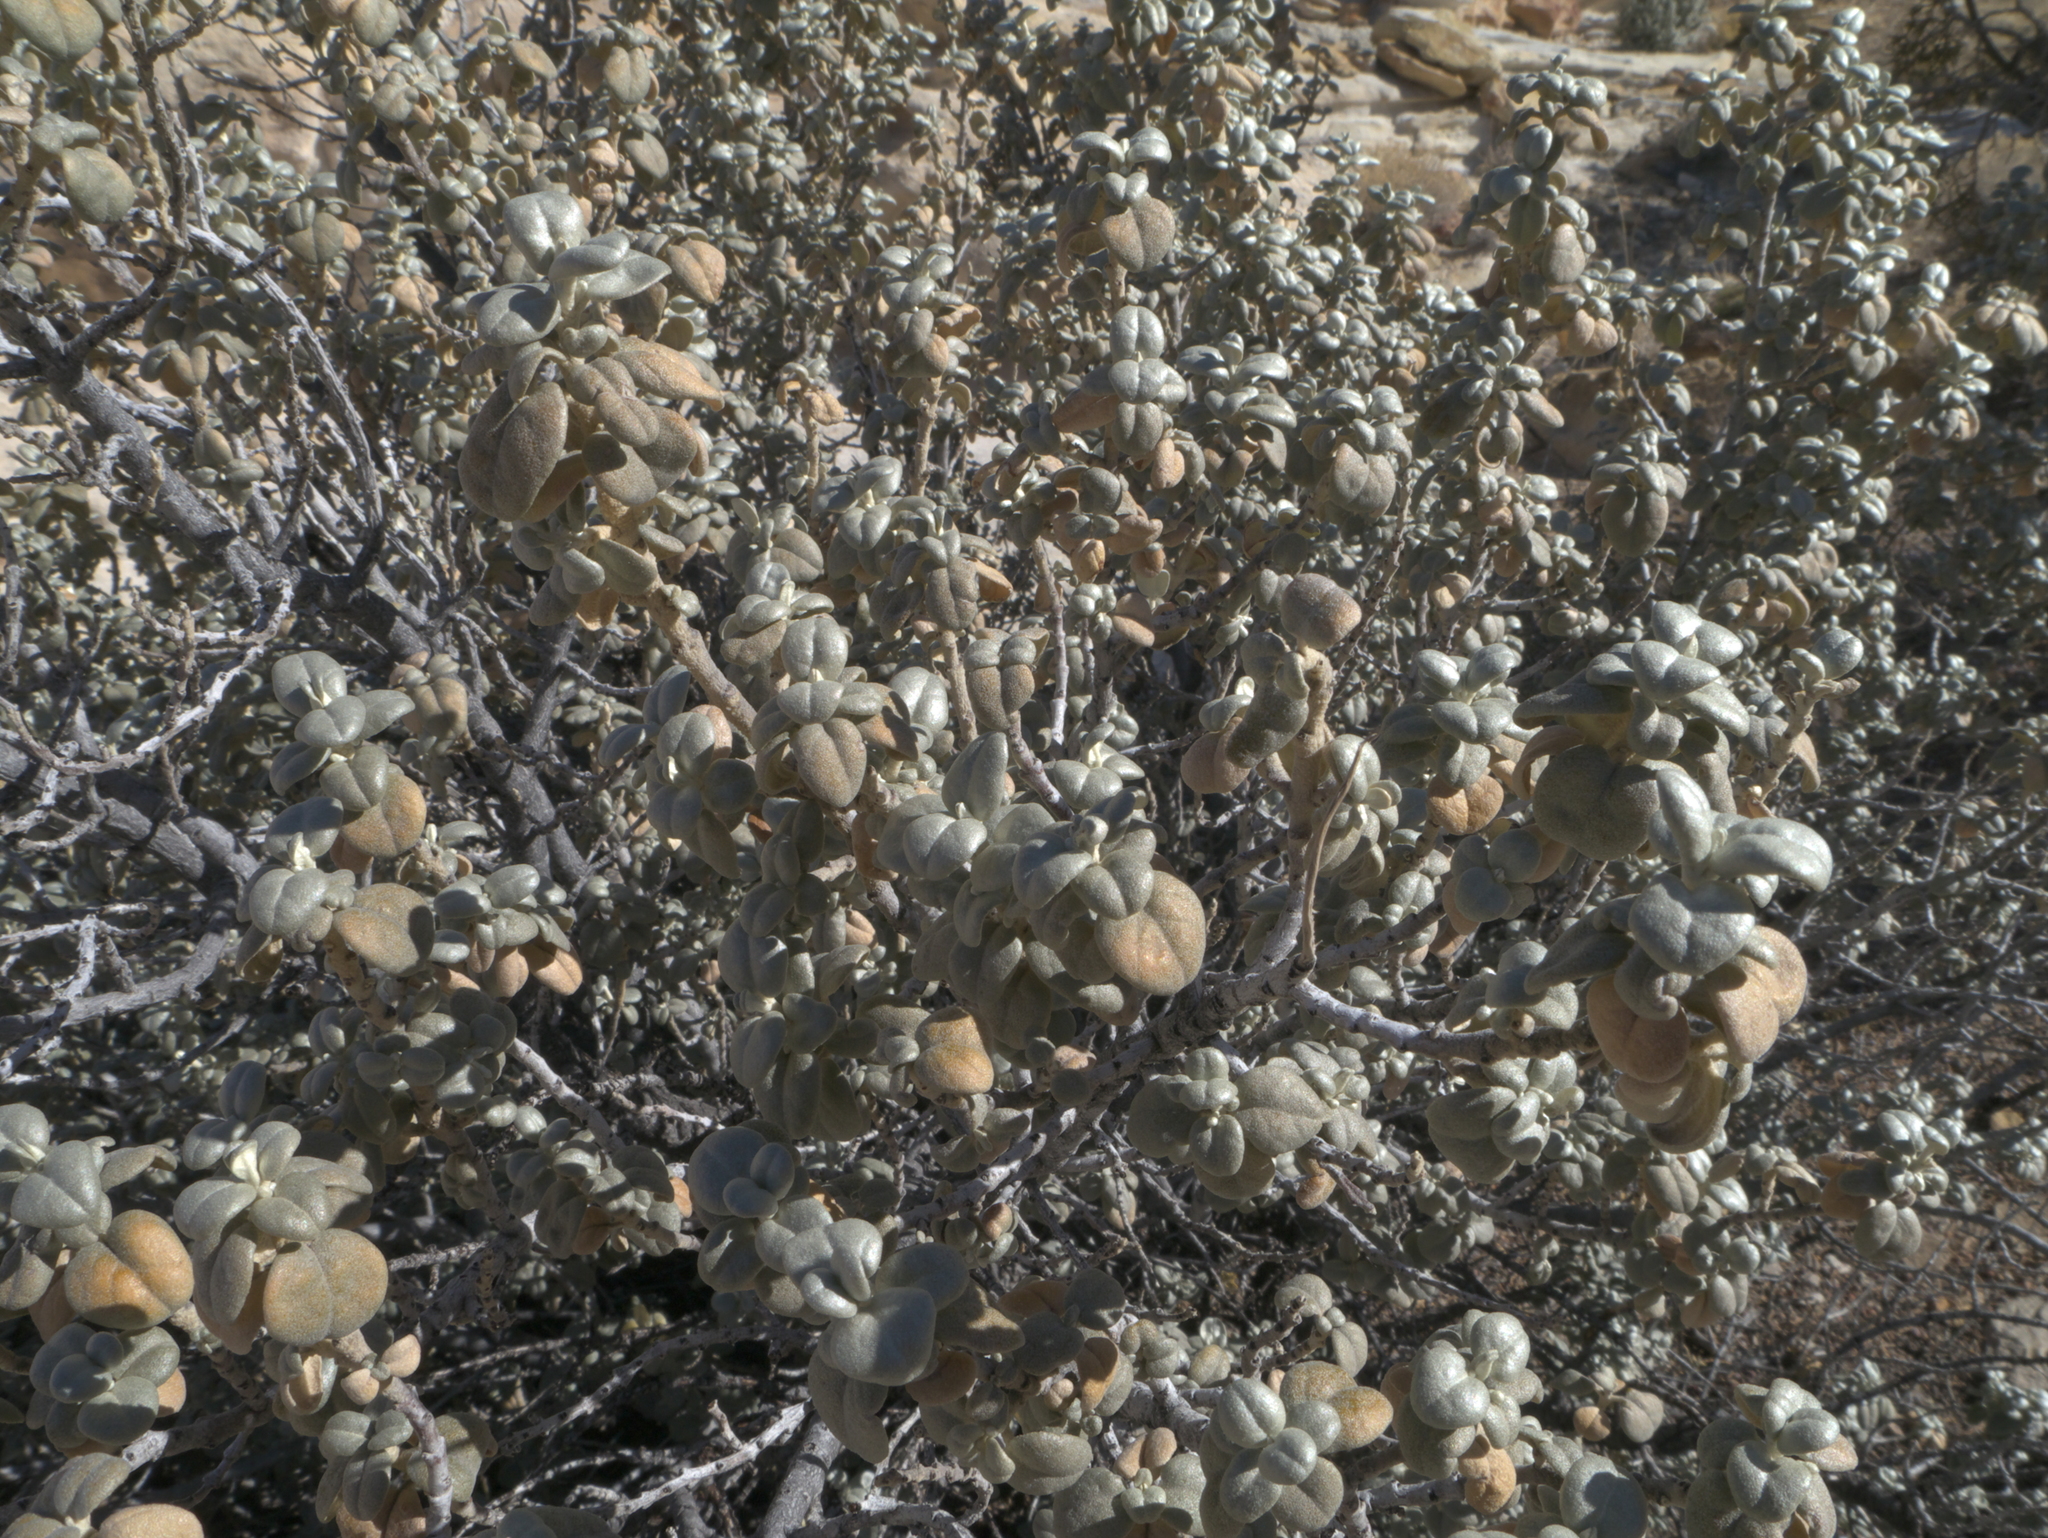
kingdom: Plantae
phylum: Tracheophyta
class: Magnoliopsida
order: Rosales
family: Elaeagnaceae
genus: Shepherdia
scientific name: Shepherdia rotundifolia
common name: Silverscale
